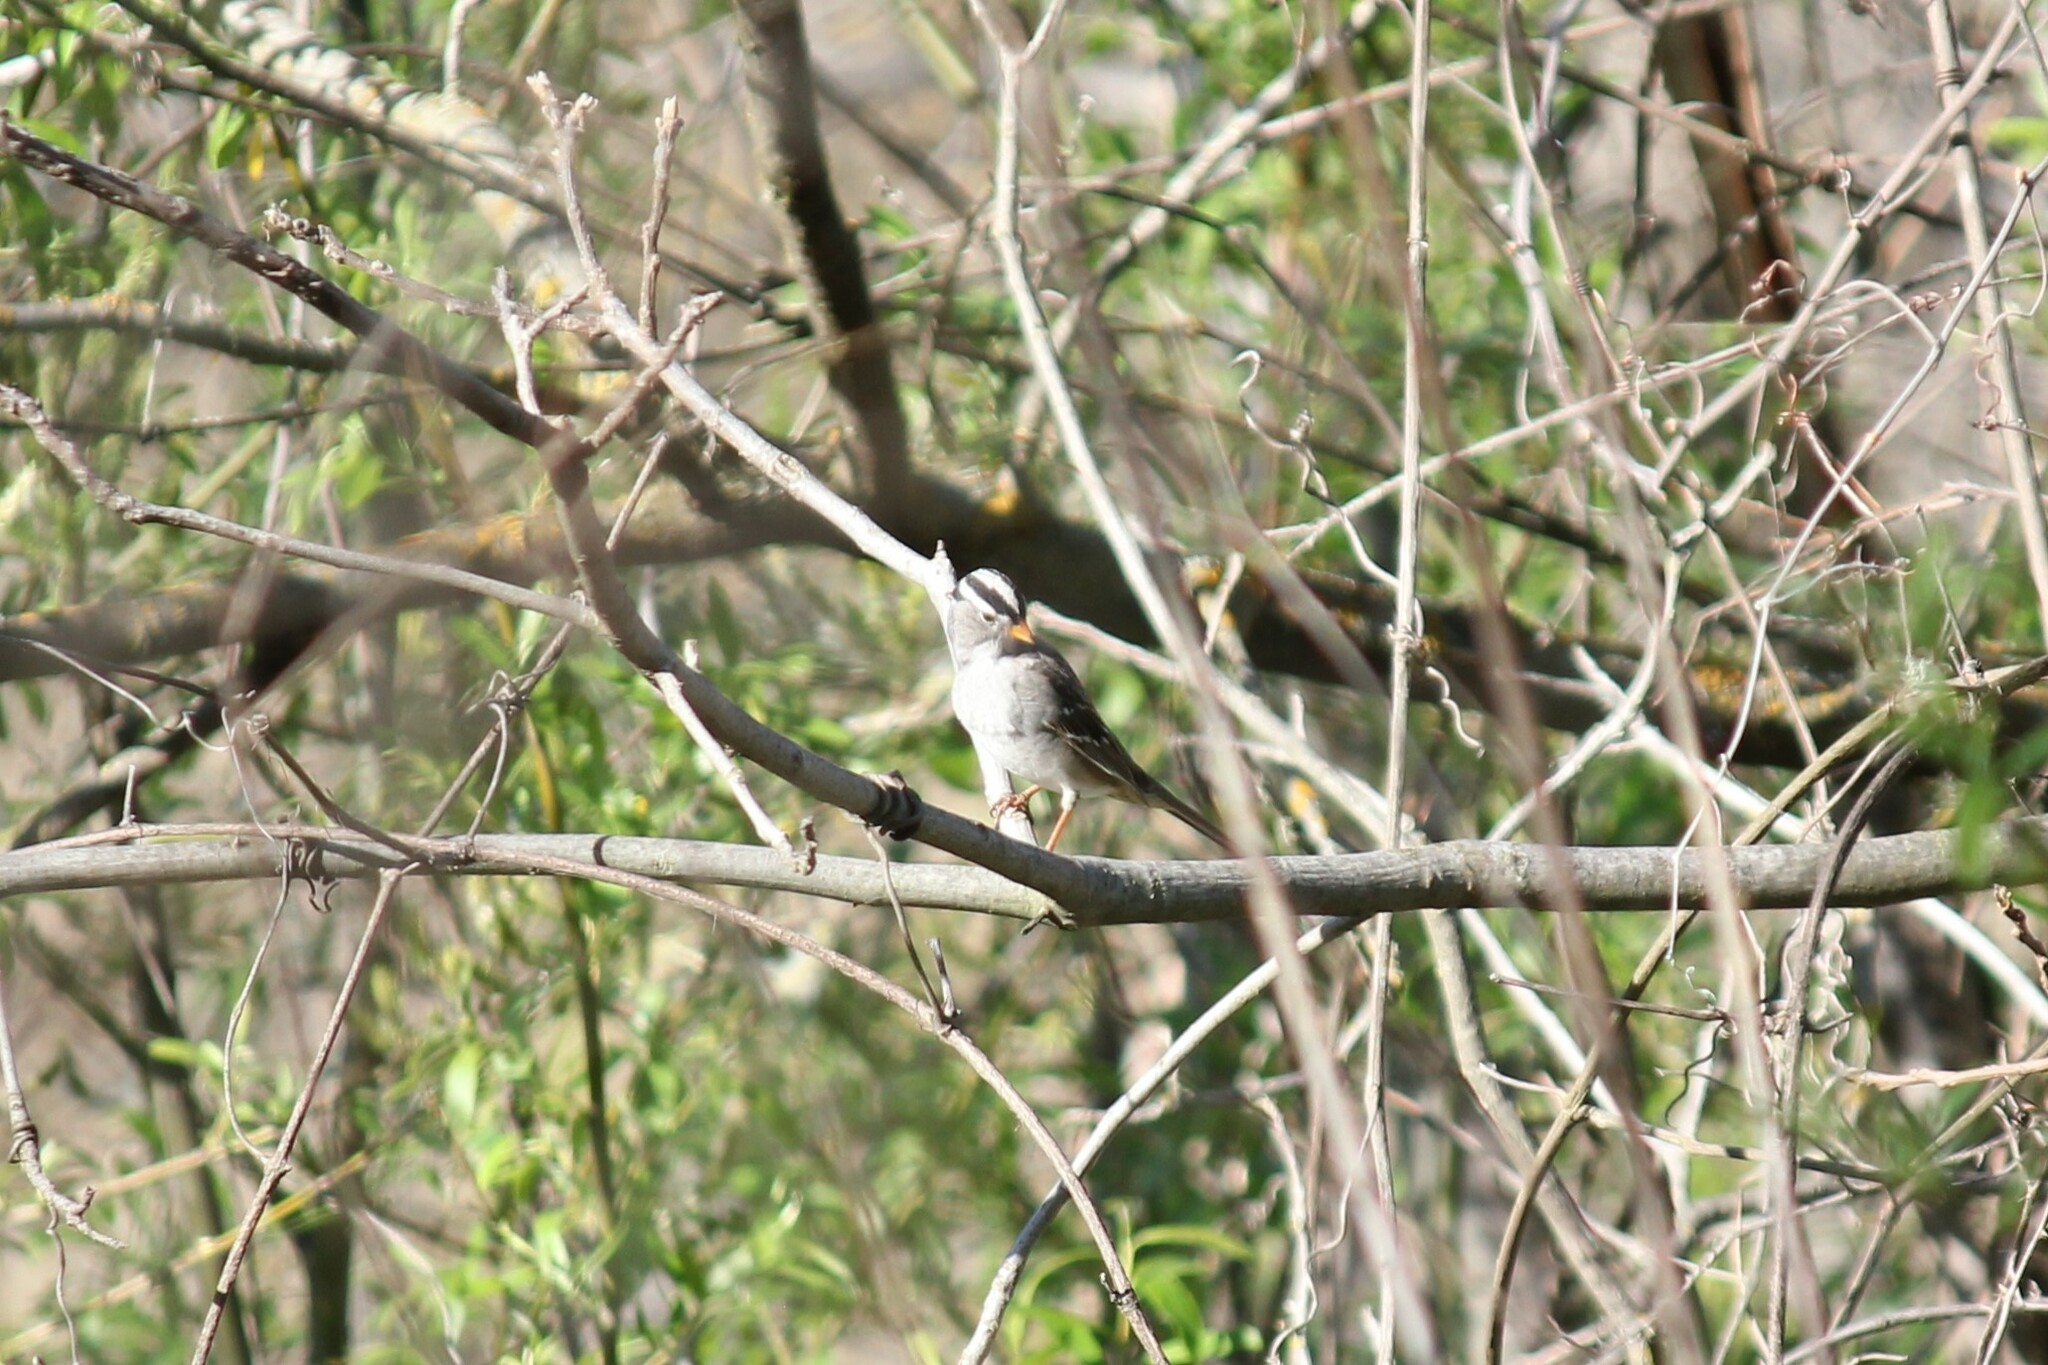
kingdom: Animalia
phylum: Chordata
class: Aves
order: Passeriformes
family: Passerellidae
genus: Zonotrichia
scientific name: Zonotrichia leucophrys
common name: White-crowned sparrow
